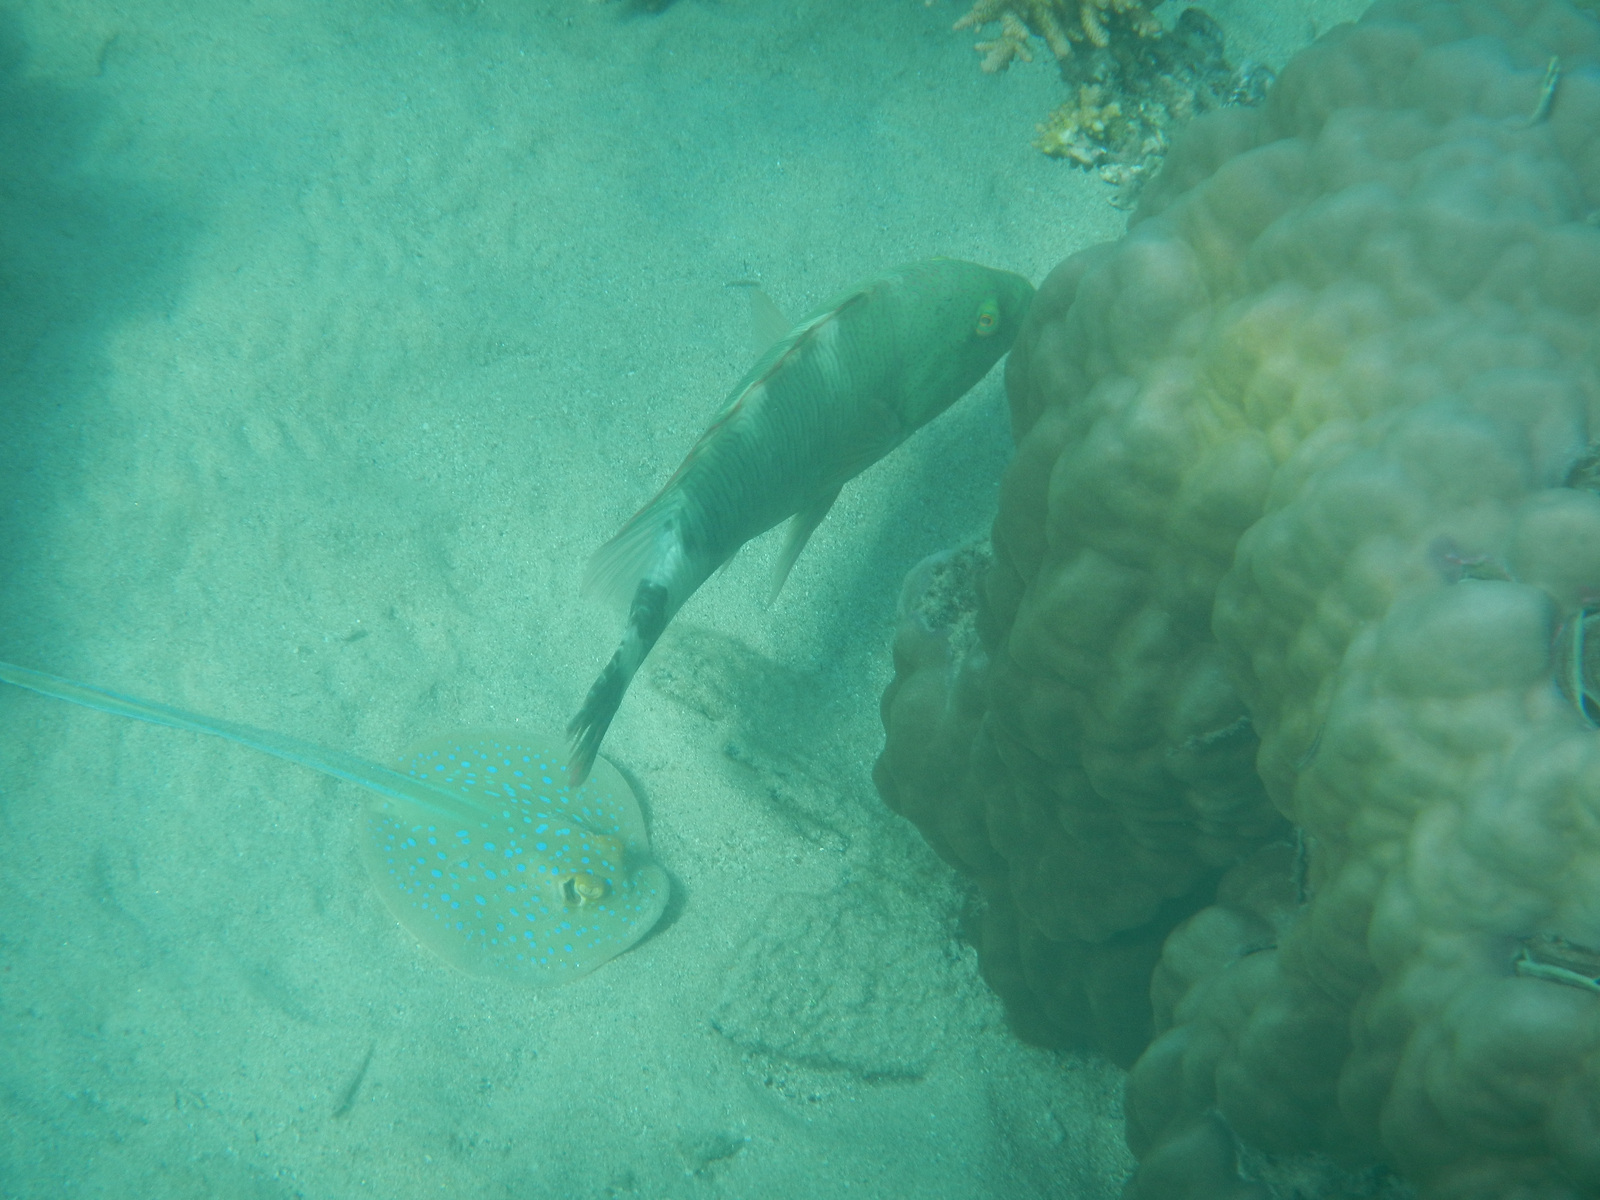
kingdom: Animalia
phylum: Chordata
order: Perciformes
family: Labridae
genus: Cheilinus
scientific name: Cheilinus trilobatus
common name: Tripletail maori wrasse
